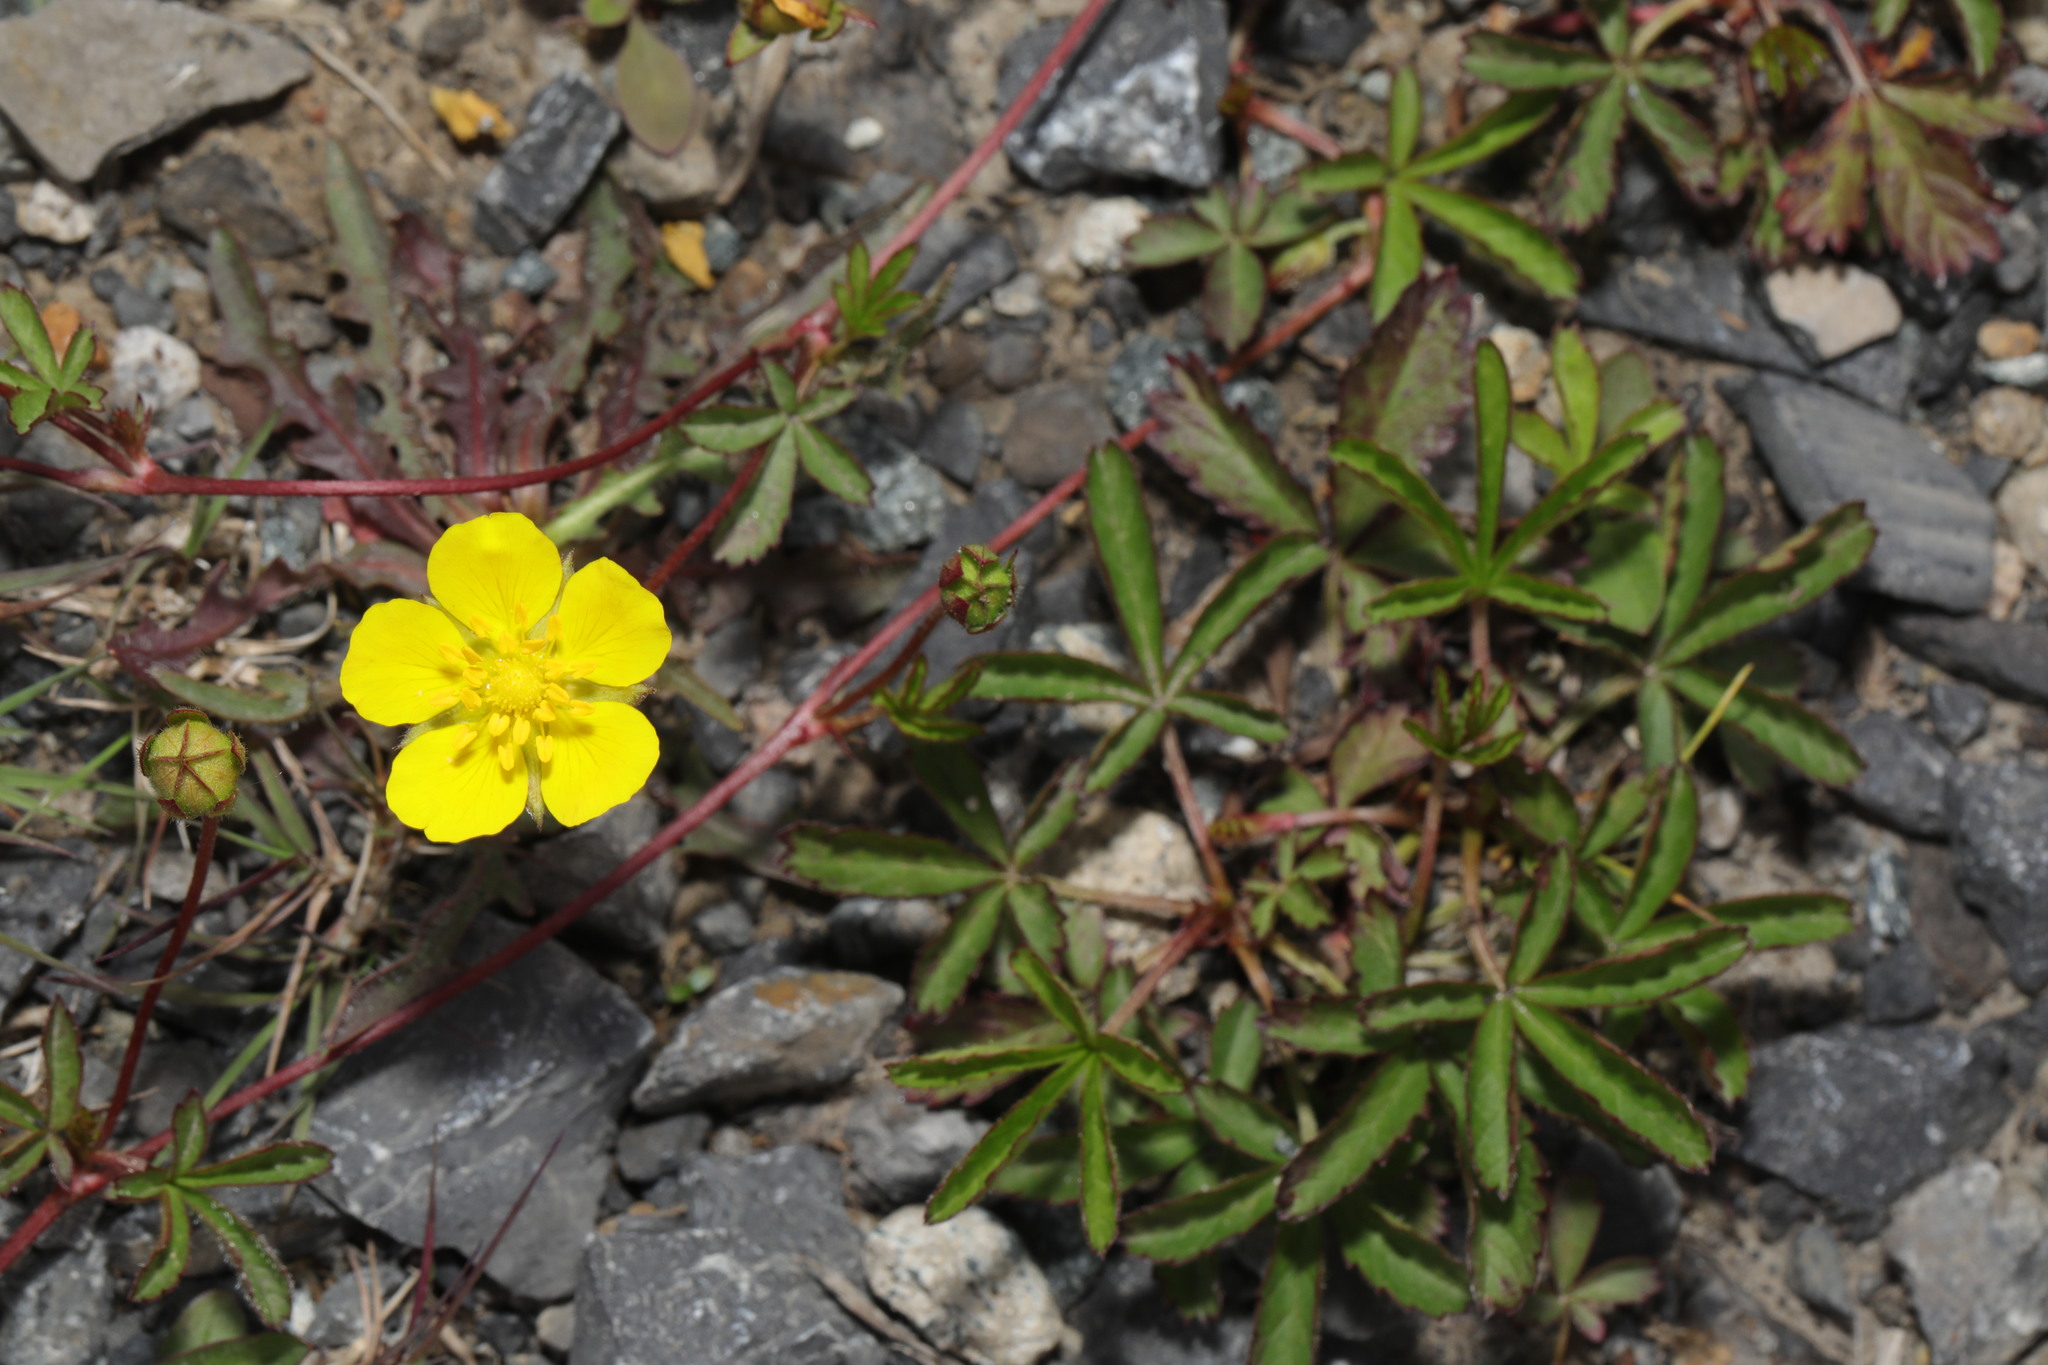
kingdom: Plantae
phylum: Tracheophyta
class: Magnoliopsida
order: Rosales
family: Rosaceae
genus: Potentilla
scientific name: Potentilla reptans
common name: Creeping cinquefoil
